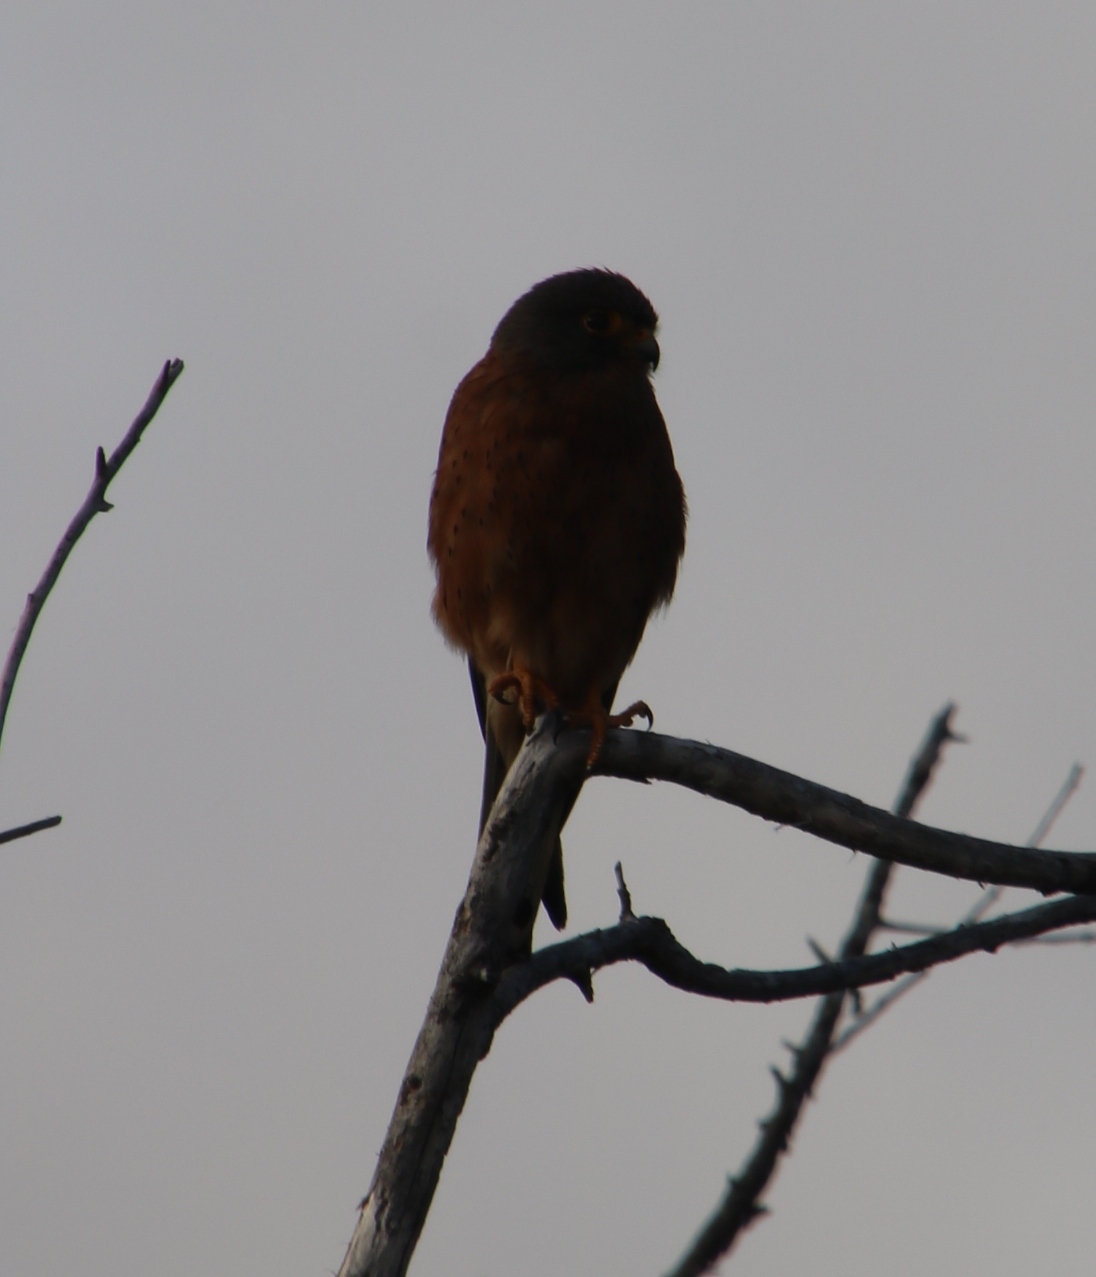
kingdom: Animalia
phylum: Chordata
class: Aves
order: Falconiformes
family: Falconidae
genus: Falco
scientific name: Falco rupicolus
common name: Rock kestrel
